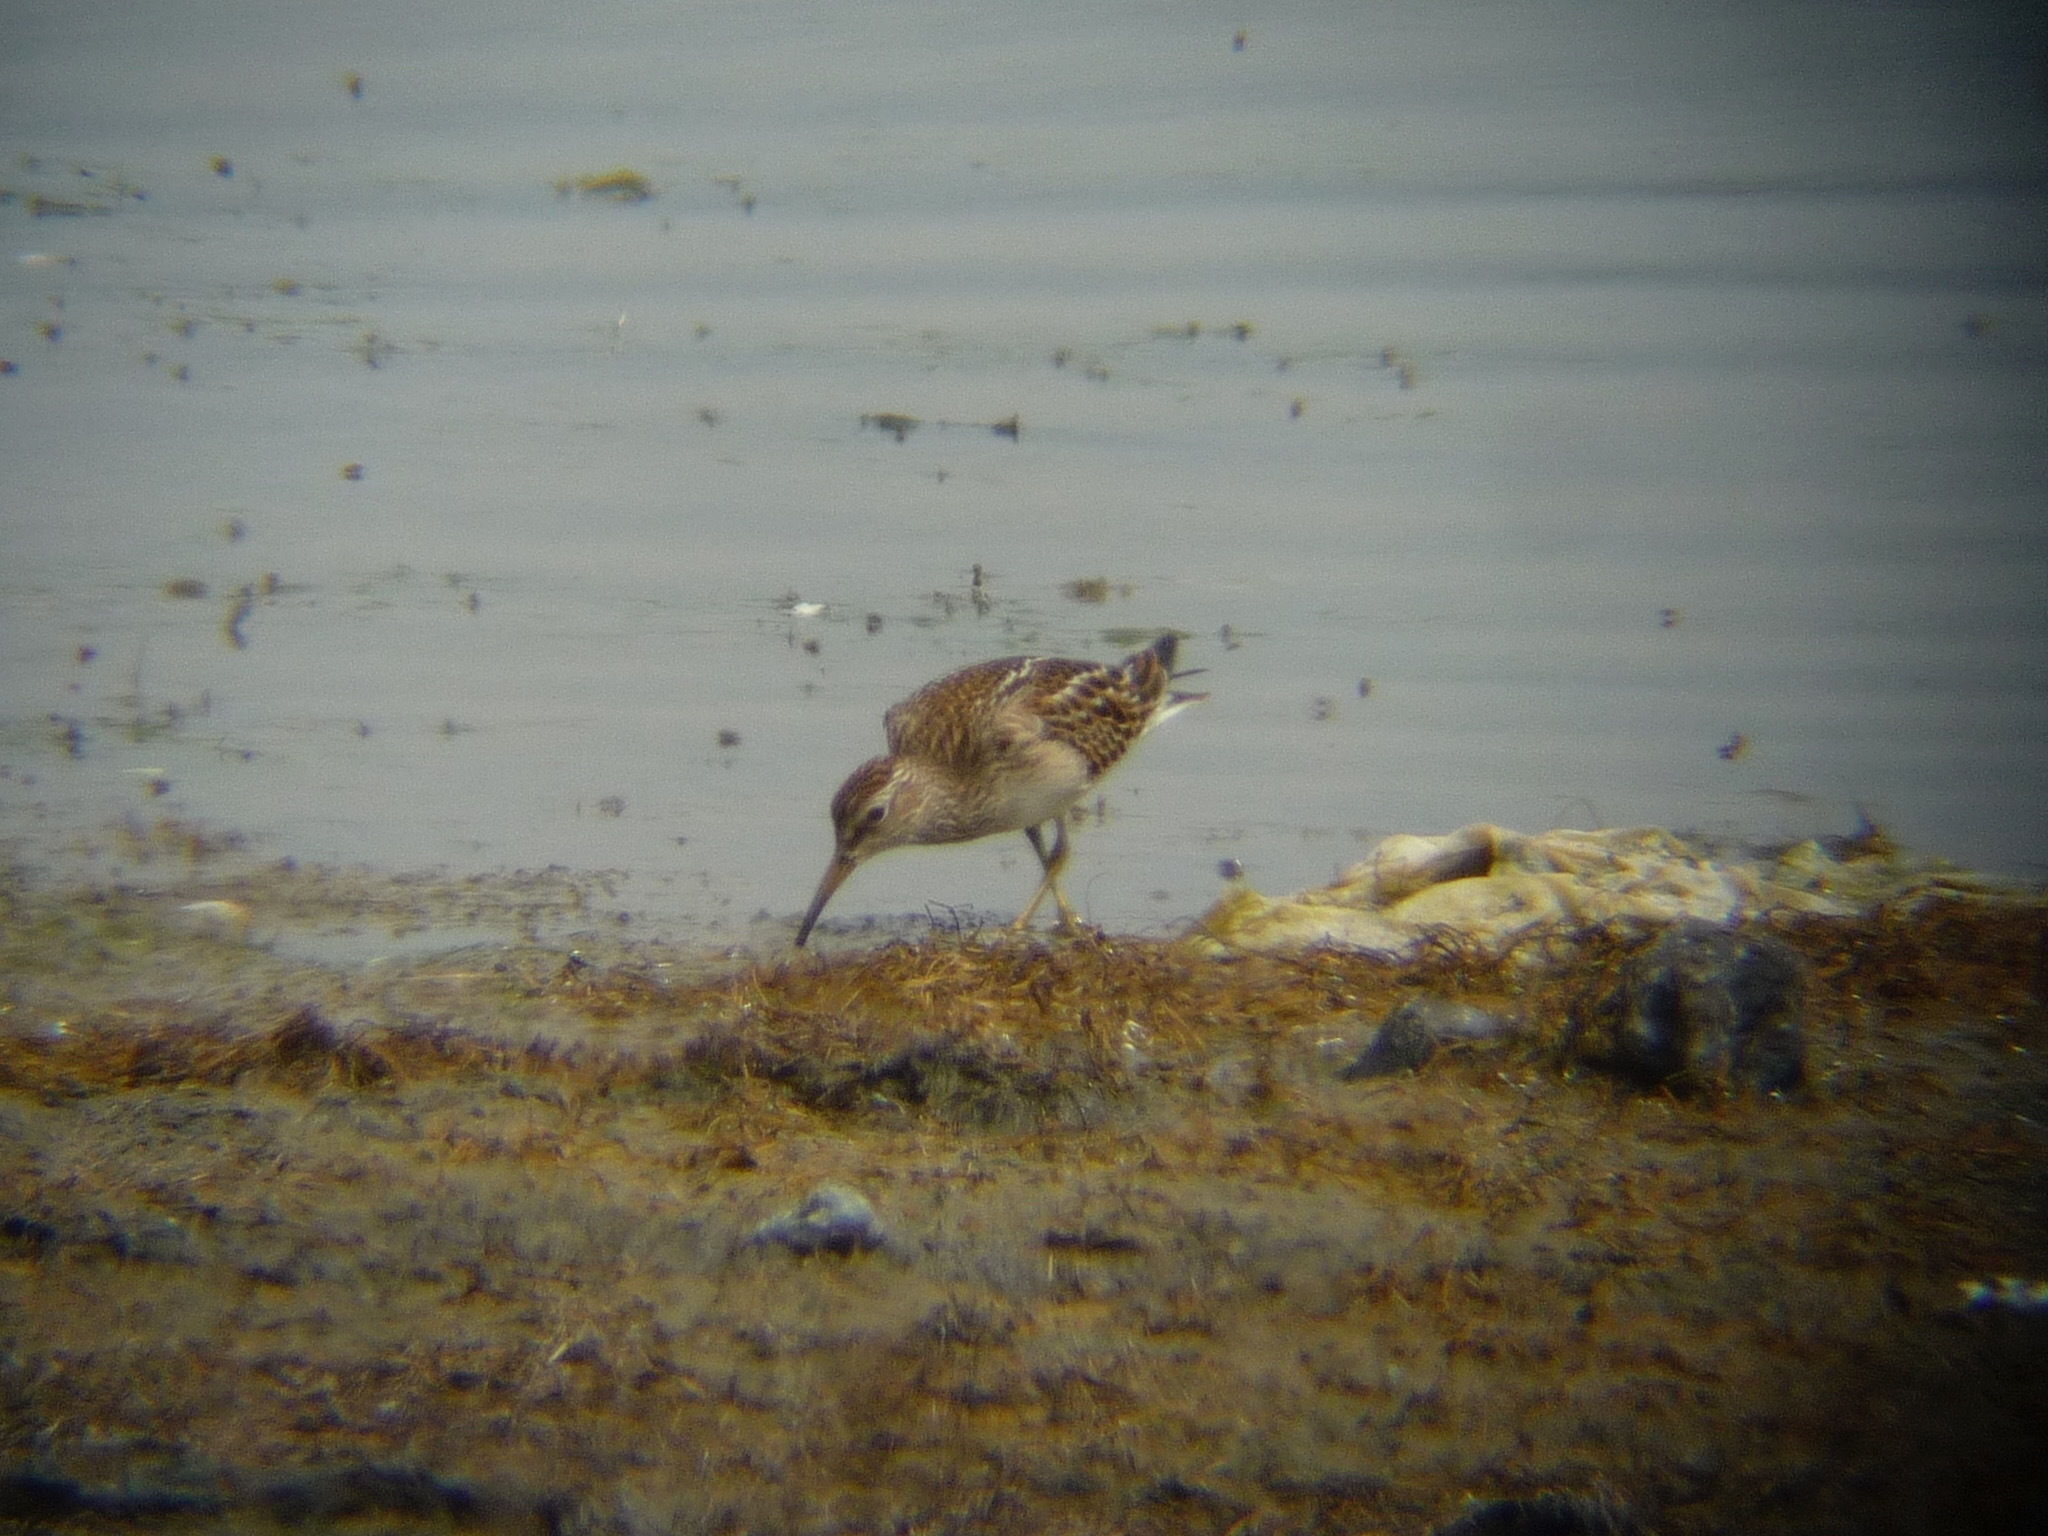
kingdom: Animalia
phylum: Chordata
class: Aves
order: Charadriiformes
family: Scolopacidae
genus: Calidris
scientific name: Calidris melanotos
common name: Pectoral sandpiper
